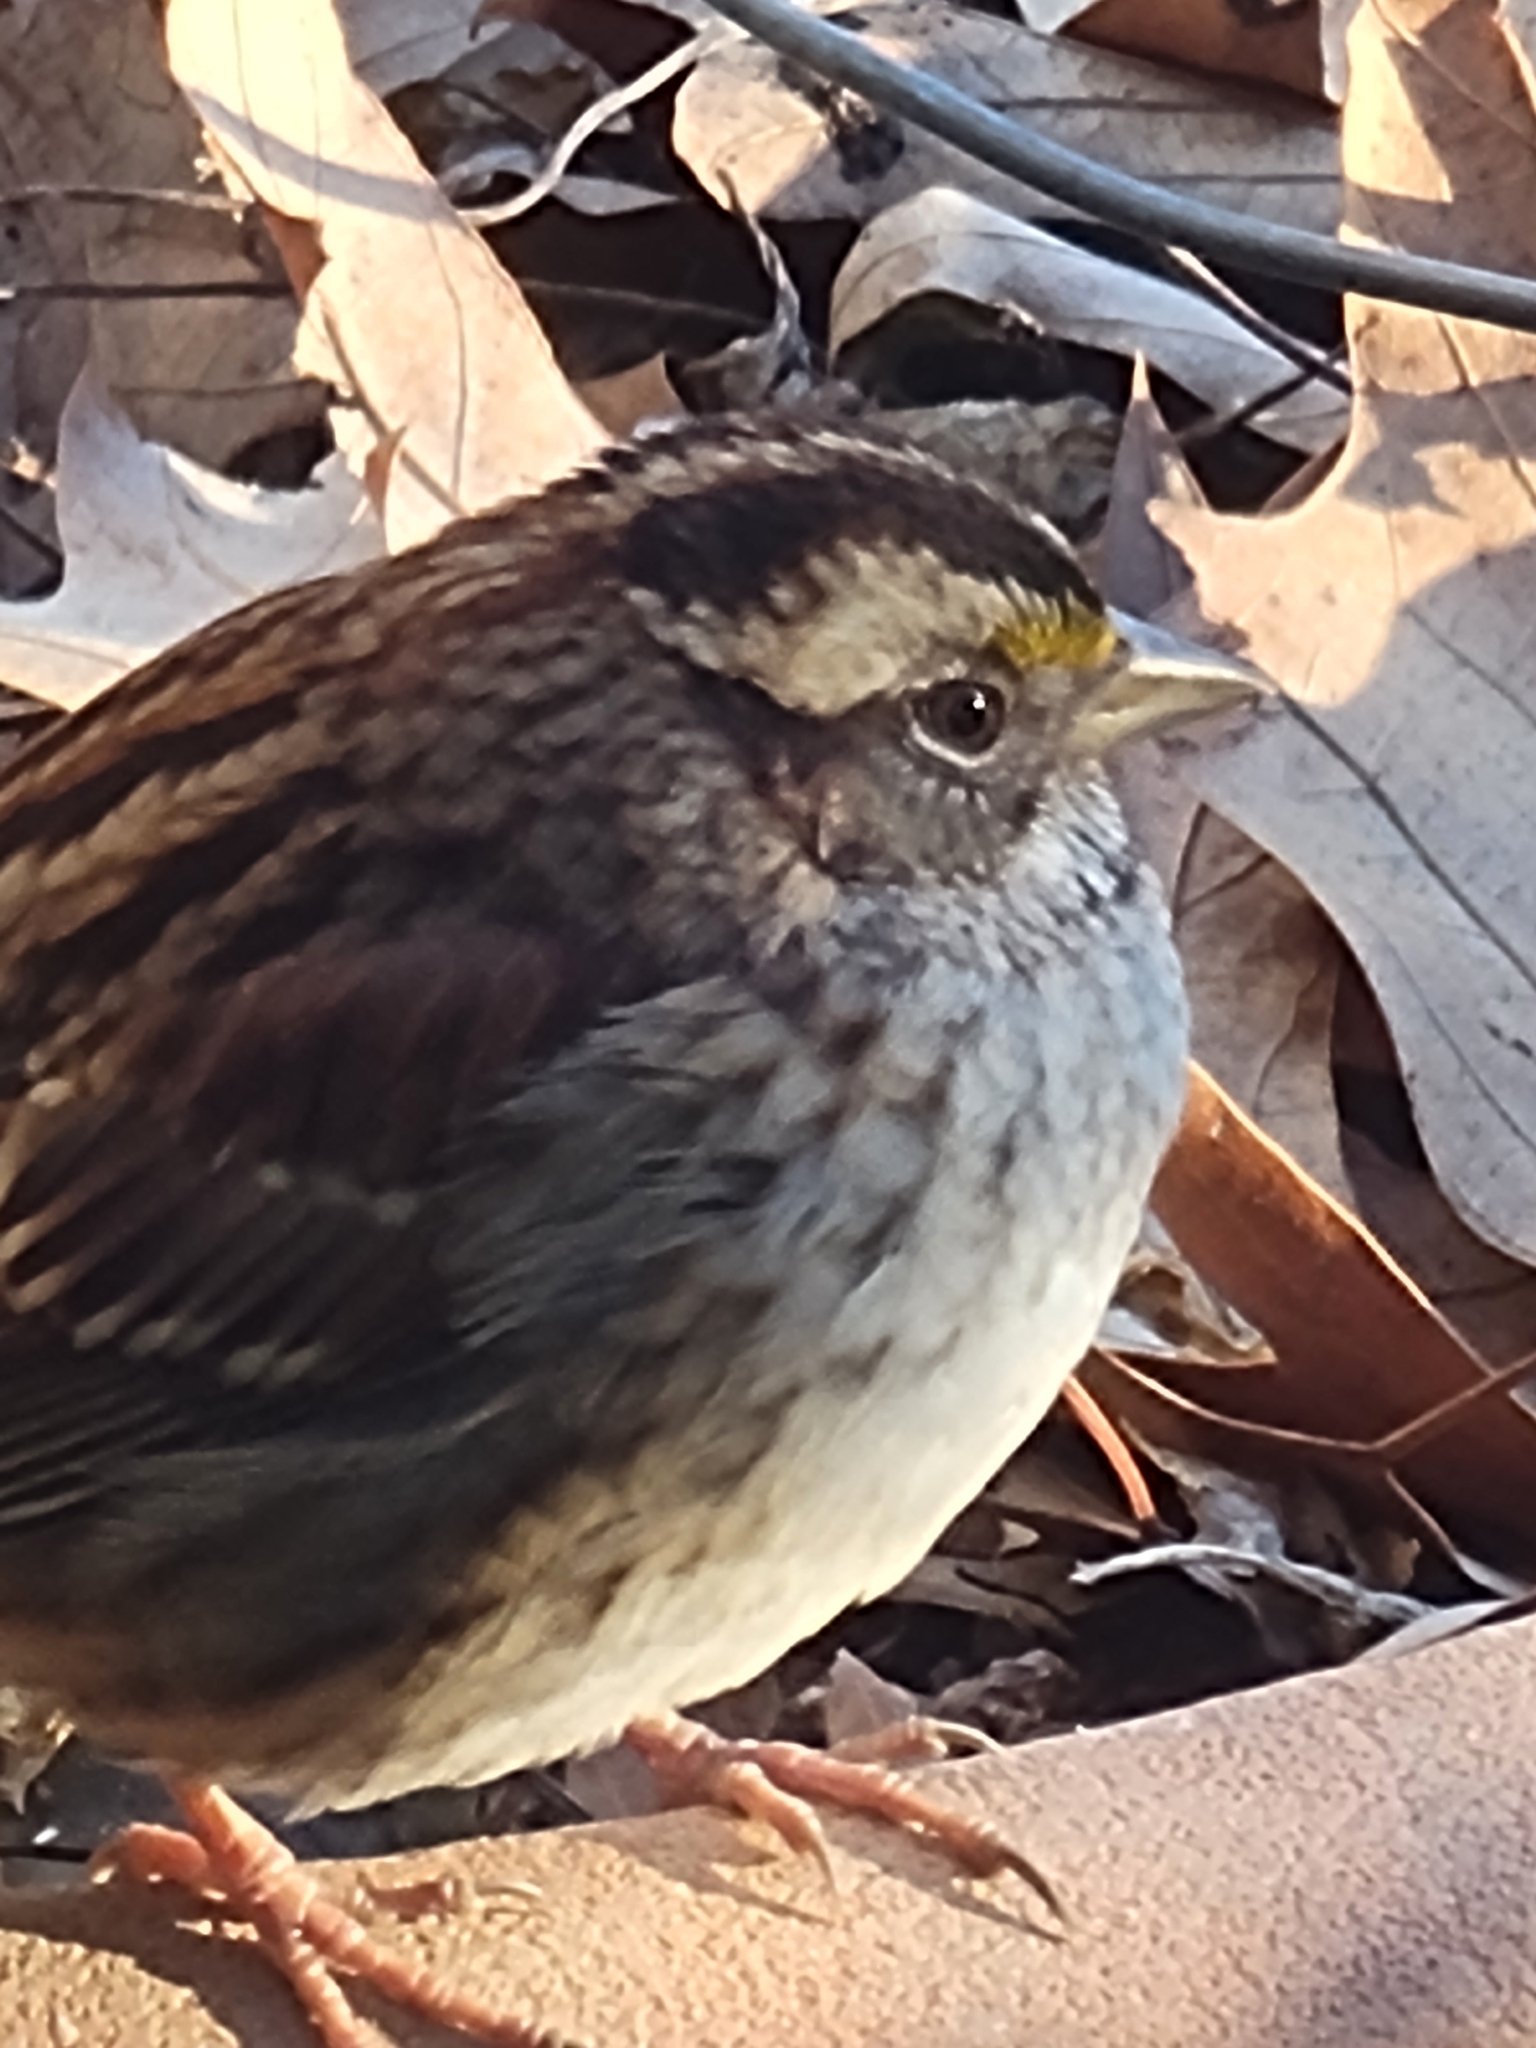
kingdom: Animalia
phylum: Chordata
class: Aves
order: Passeriformes
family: Passerellidae
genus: Zonotrichia
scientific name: Zonotrichia albicollis
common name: White-throated sparrow
